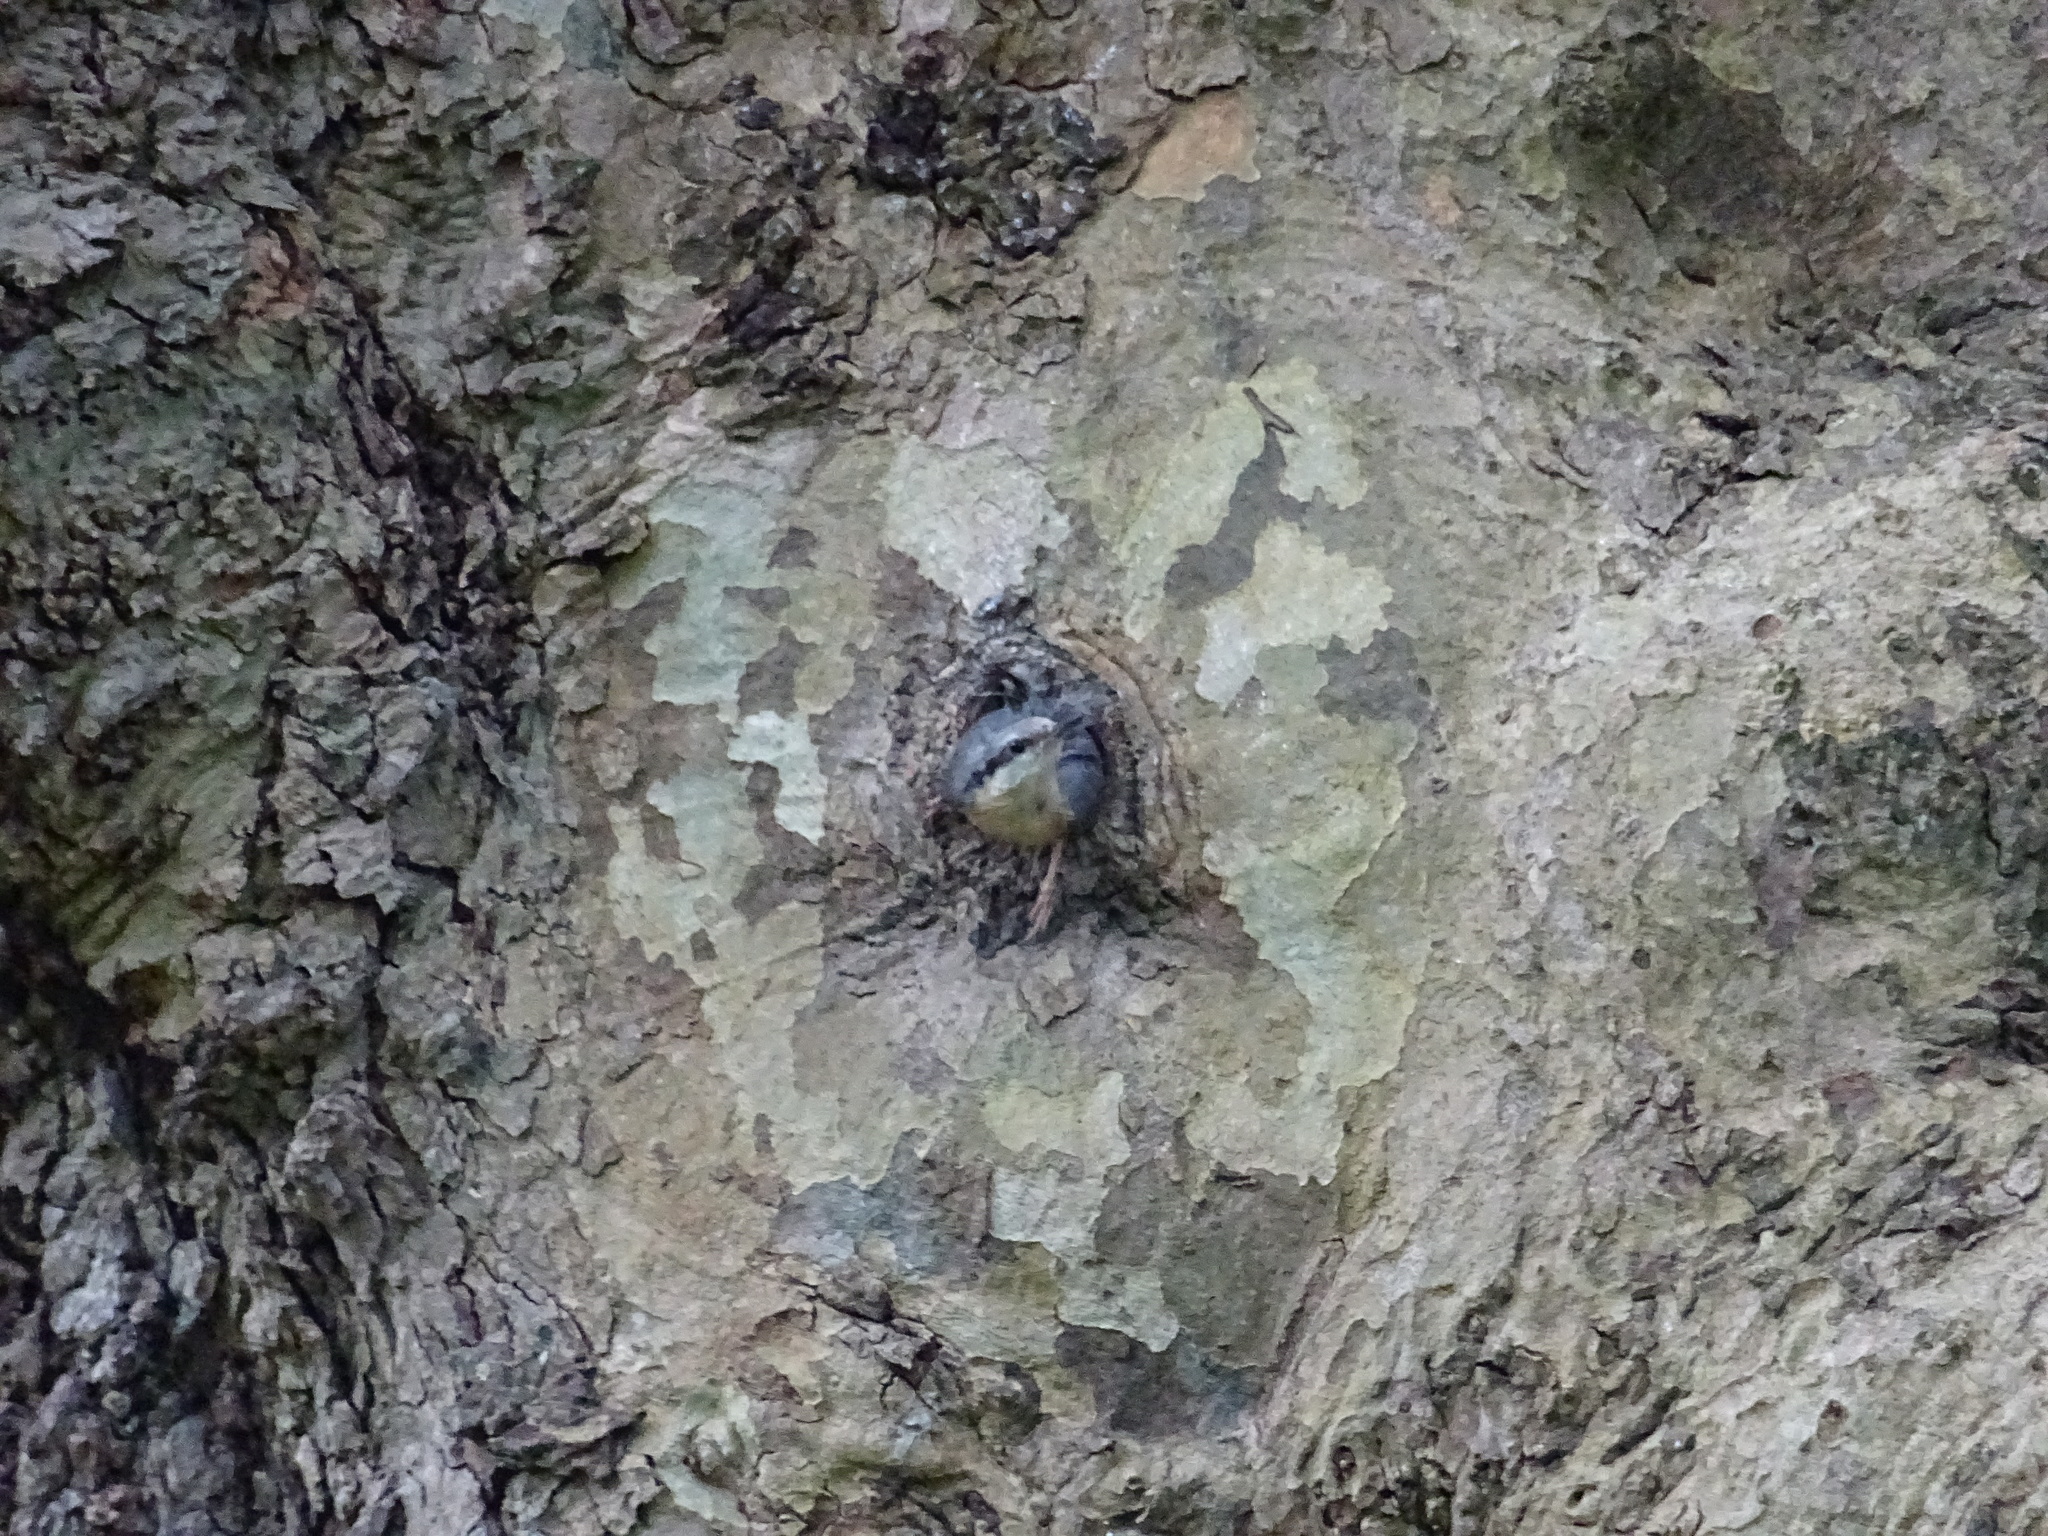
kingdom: Animalia
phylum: Chordata
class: Aves
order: Passeriformes
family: Sittidae
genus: Sitta
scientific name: Sitta europaea
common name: Eurasian nuthatch
